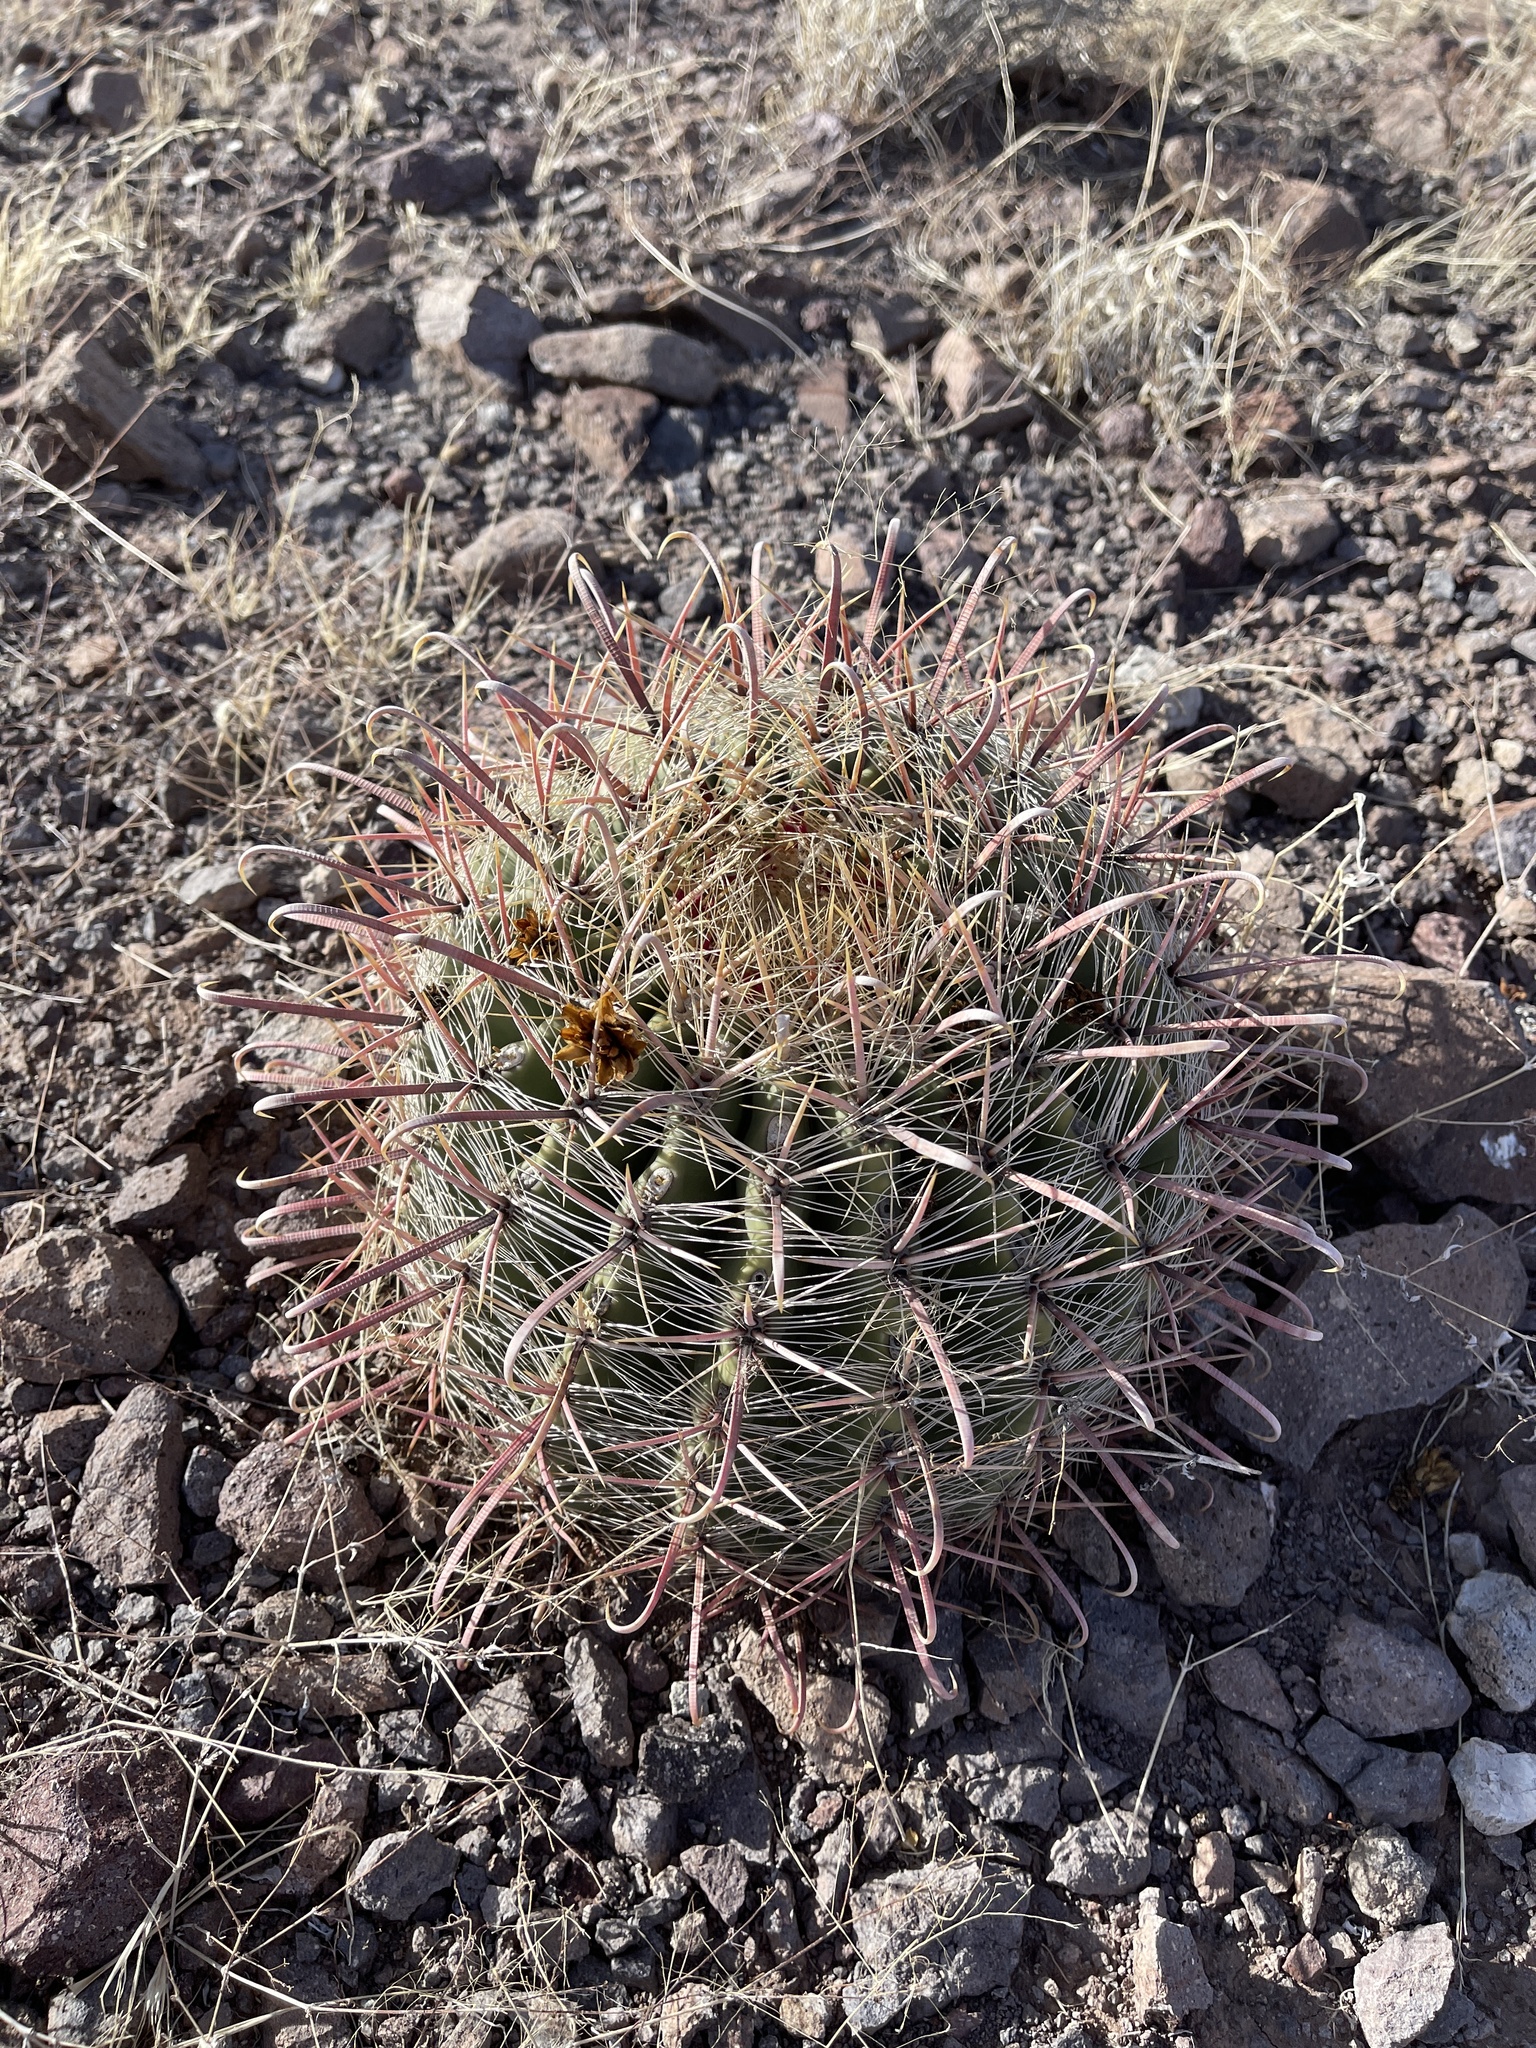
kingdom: Plantae
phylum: Tracheophyta
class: Magnoliopsida
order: Caryophyllales
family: Cactaceae
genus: Ferocactus
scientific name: Ferocactus wislizeni
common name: Candy barrel cactus
